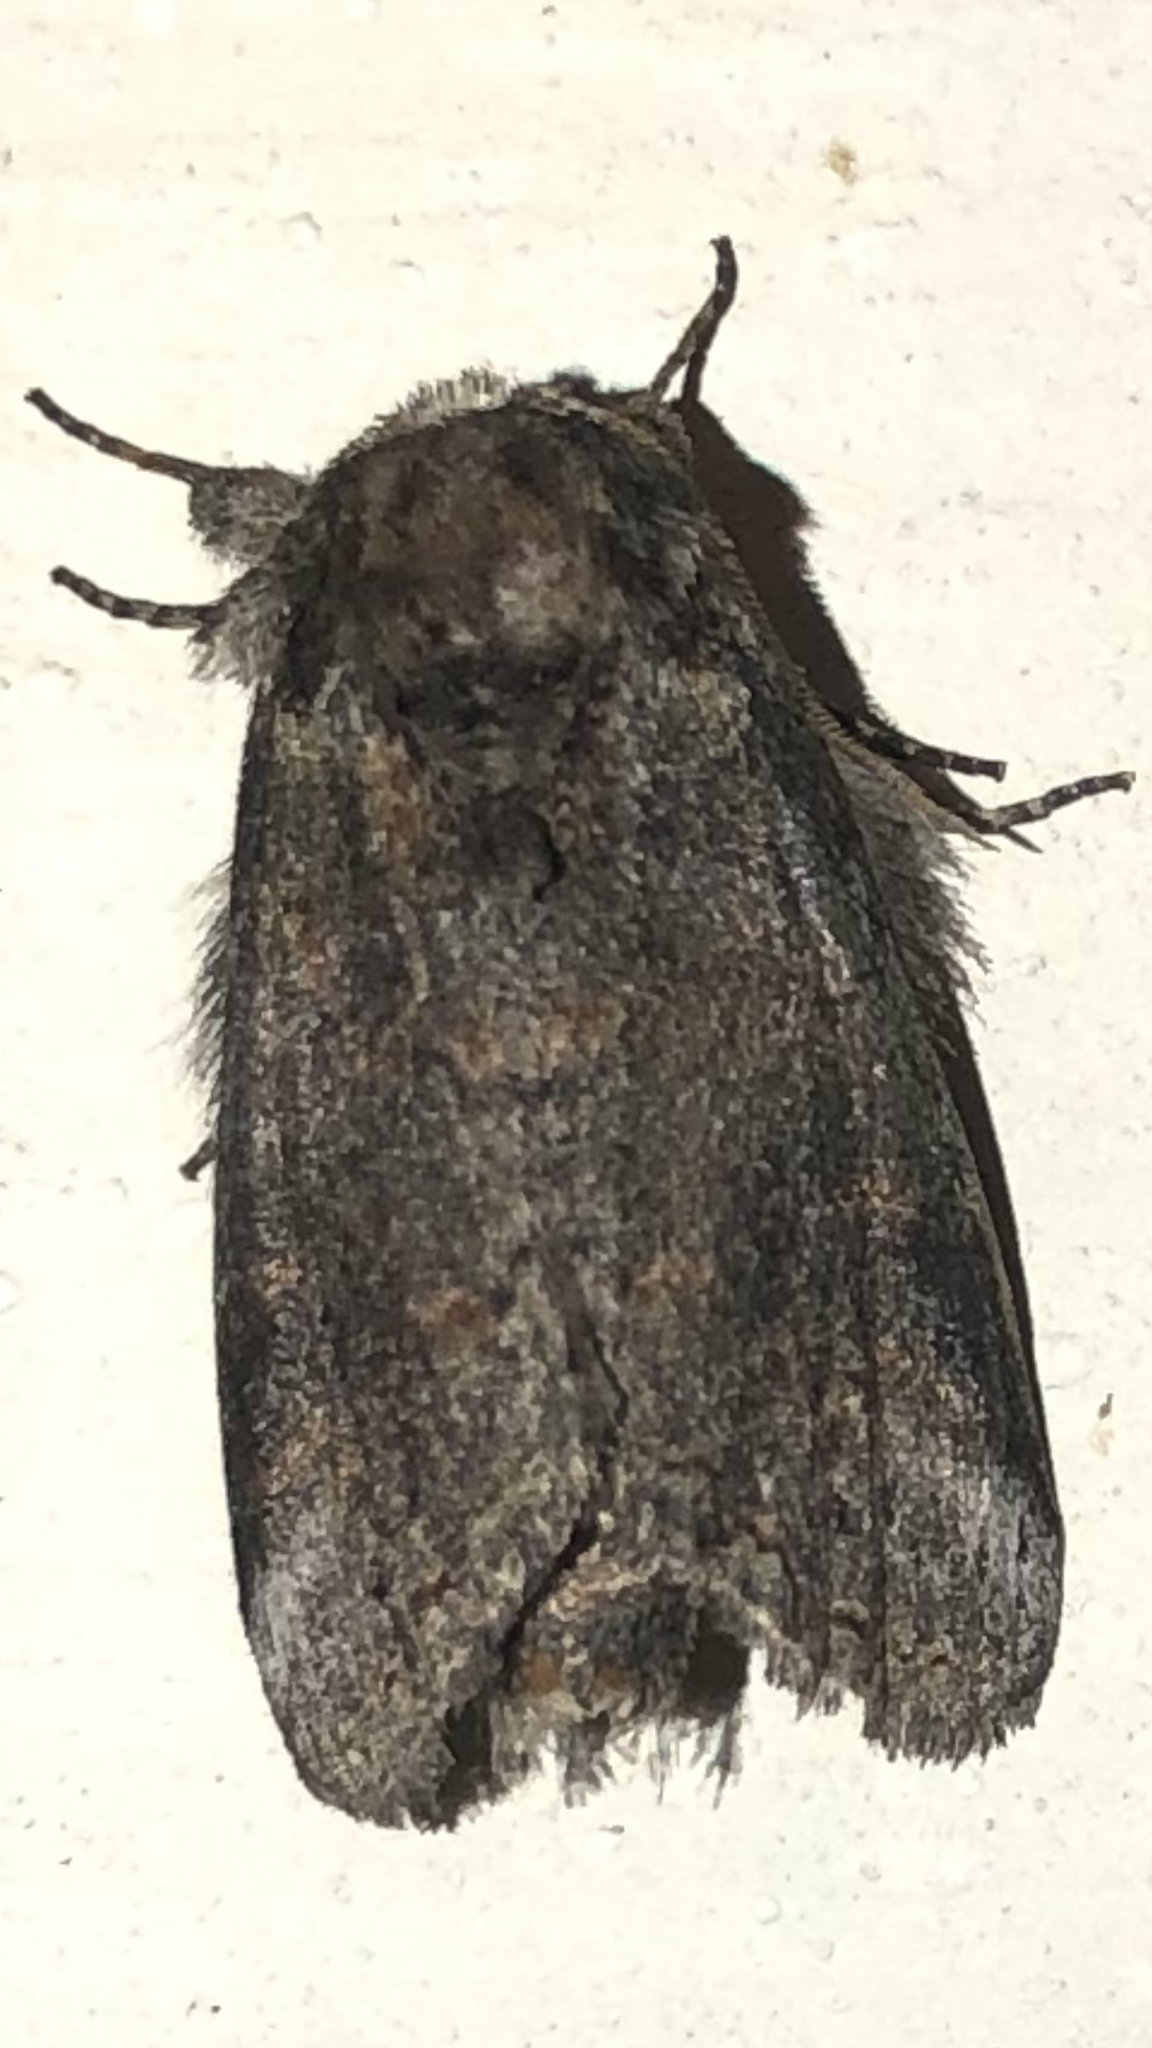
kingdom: Animalia
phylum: Arthropoda
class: Insecta
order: Lepidoptera
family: Notodontidae
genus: Rifargia
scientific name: Rifargia
